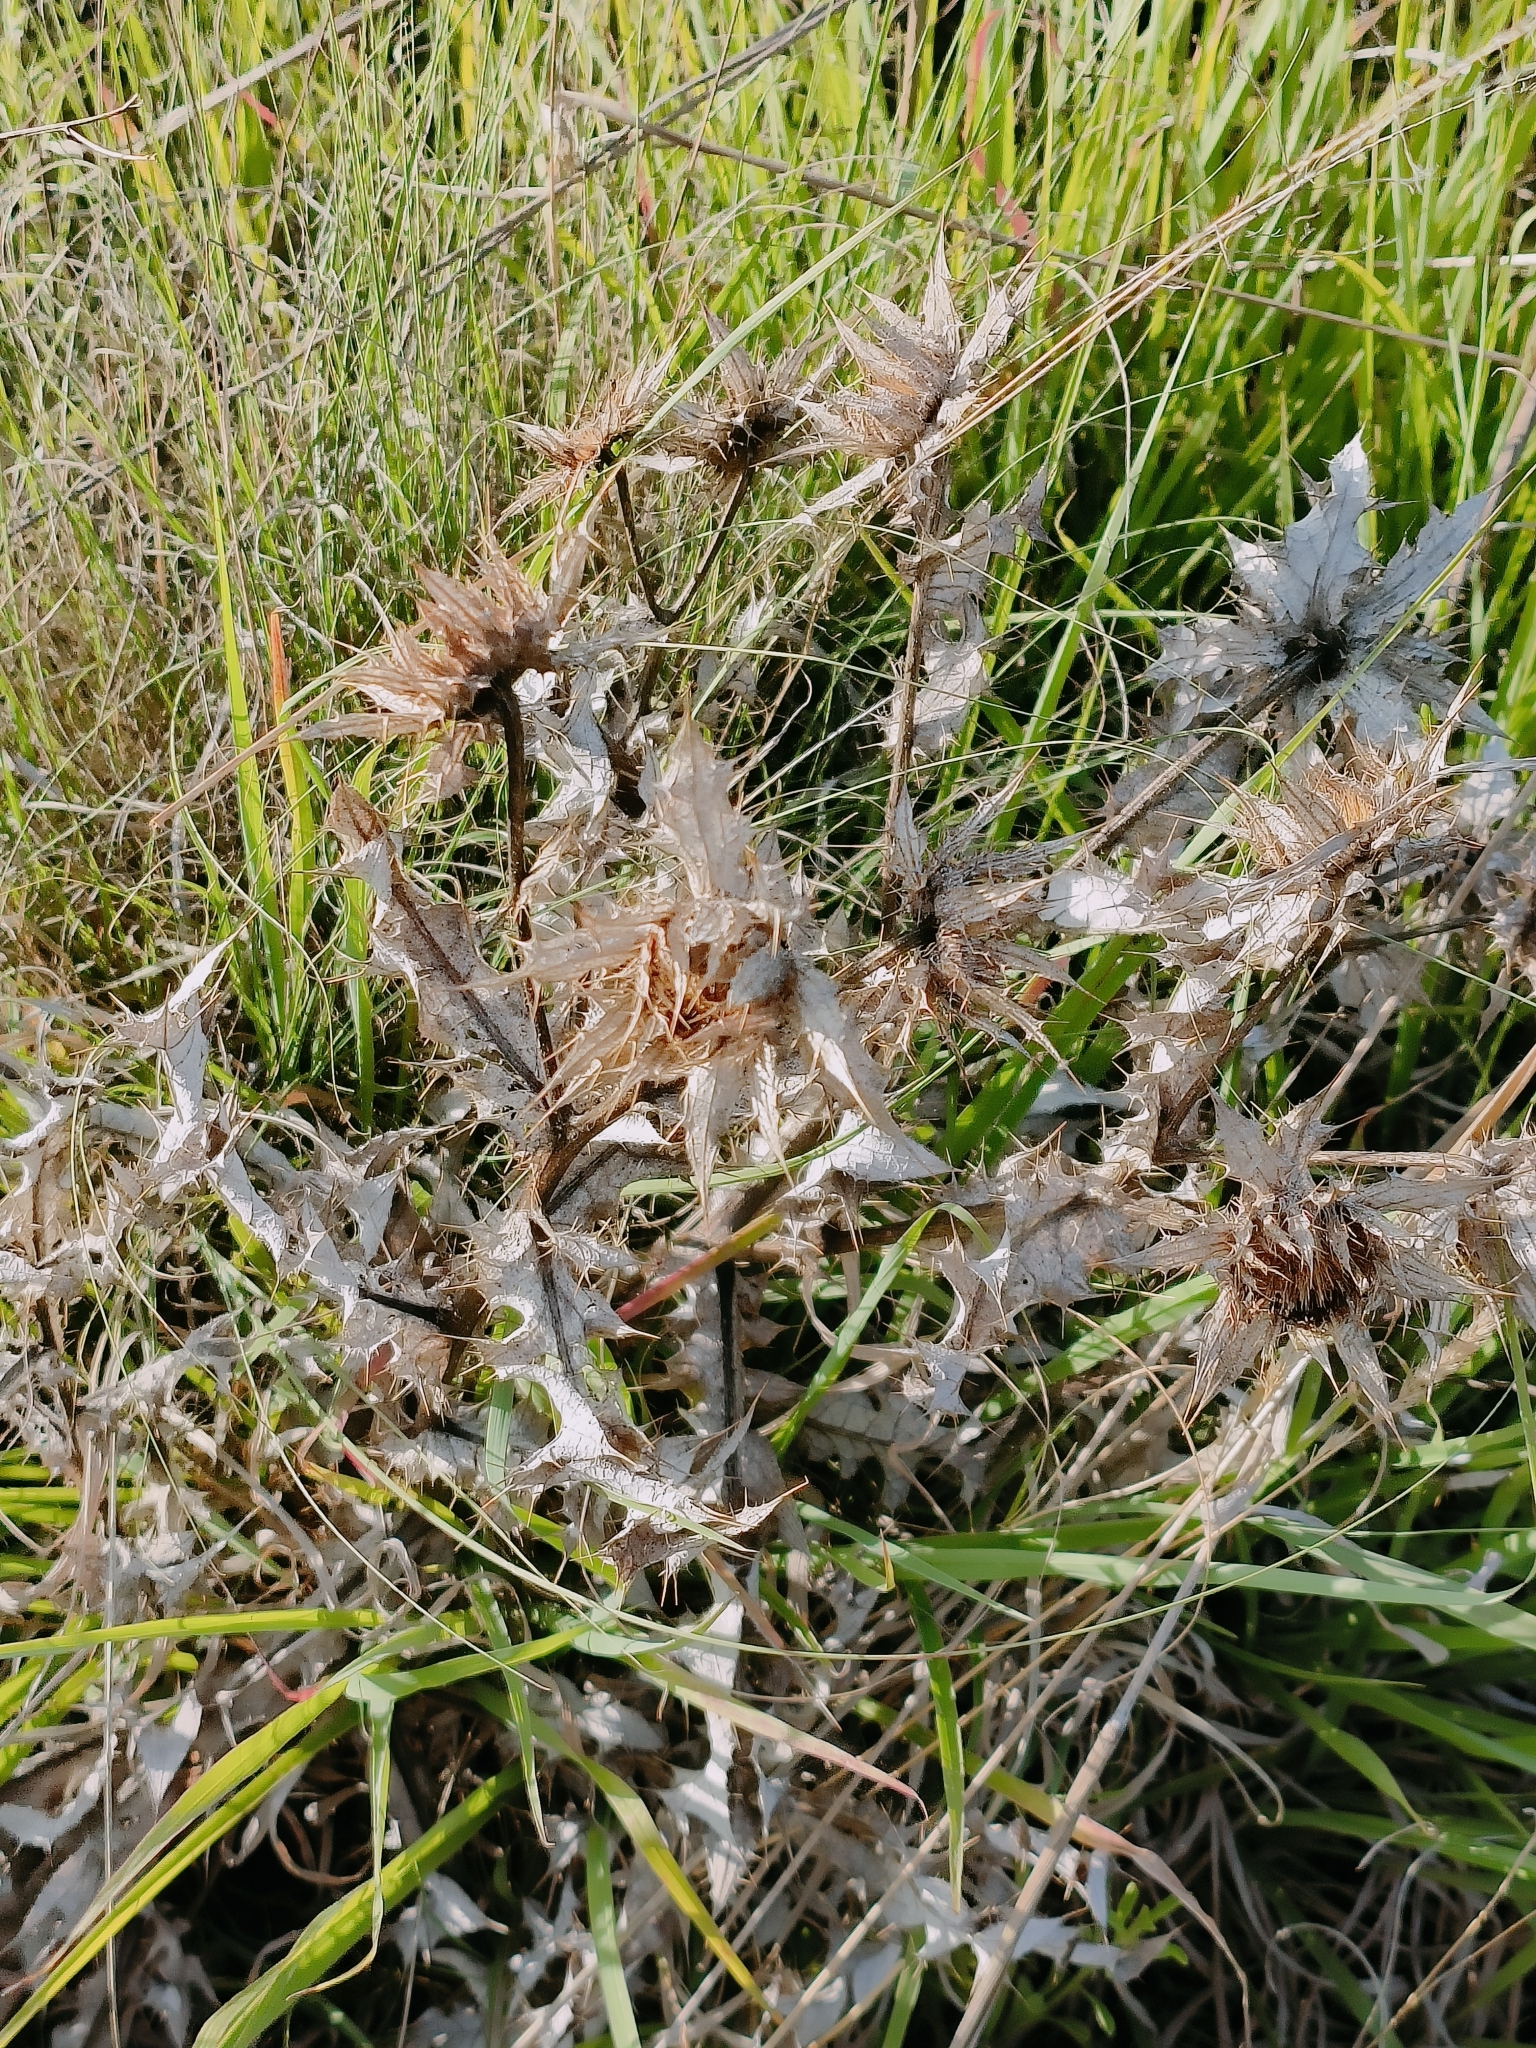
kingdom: Plantae
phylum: Tracheophyta
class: Magnoliopsida
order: Asterales
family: Asteraceae
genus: Berkheya
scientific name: Berkheya onopordifolia
